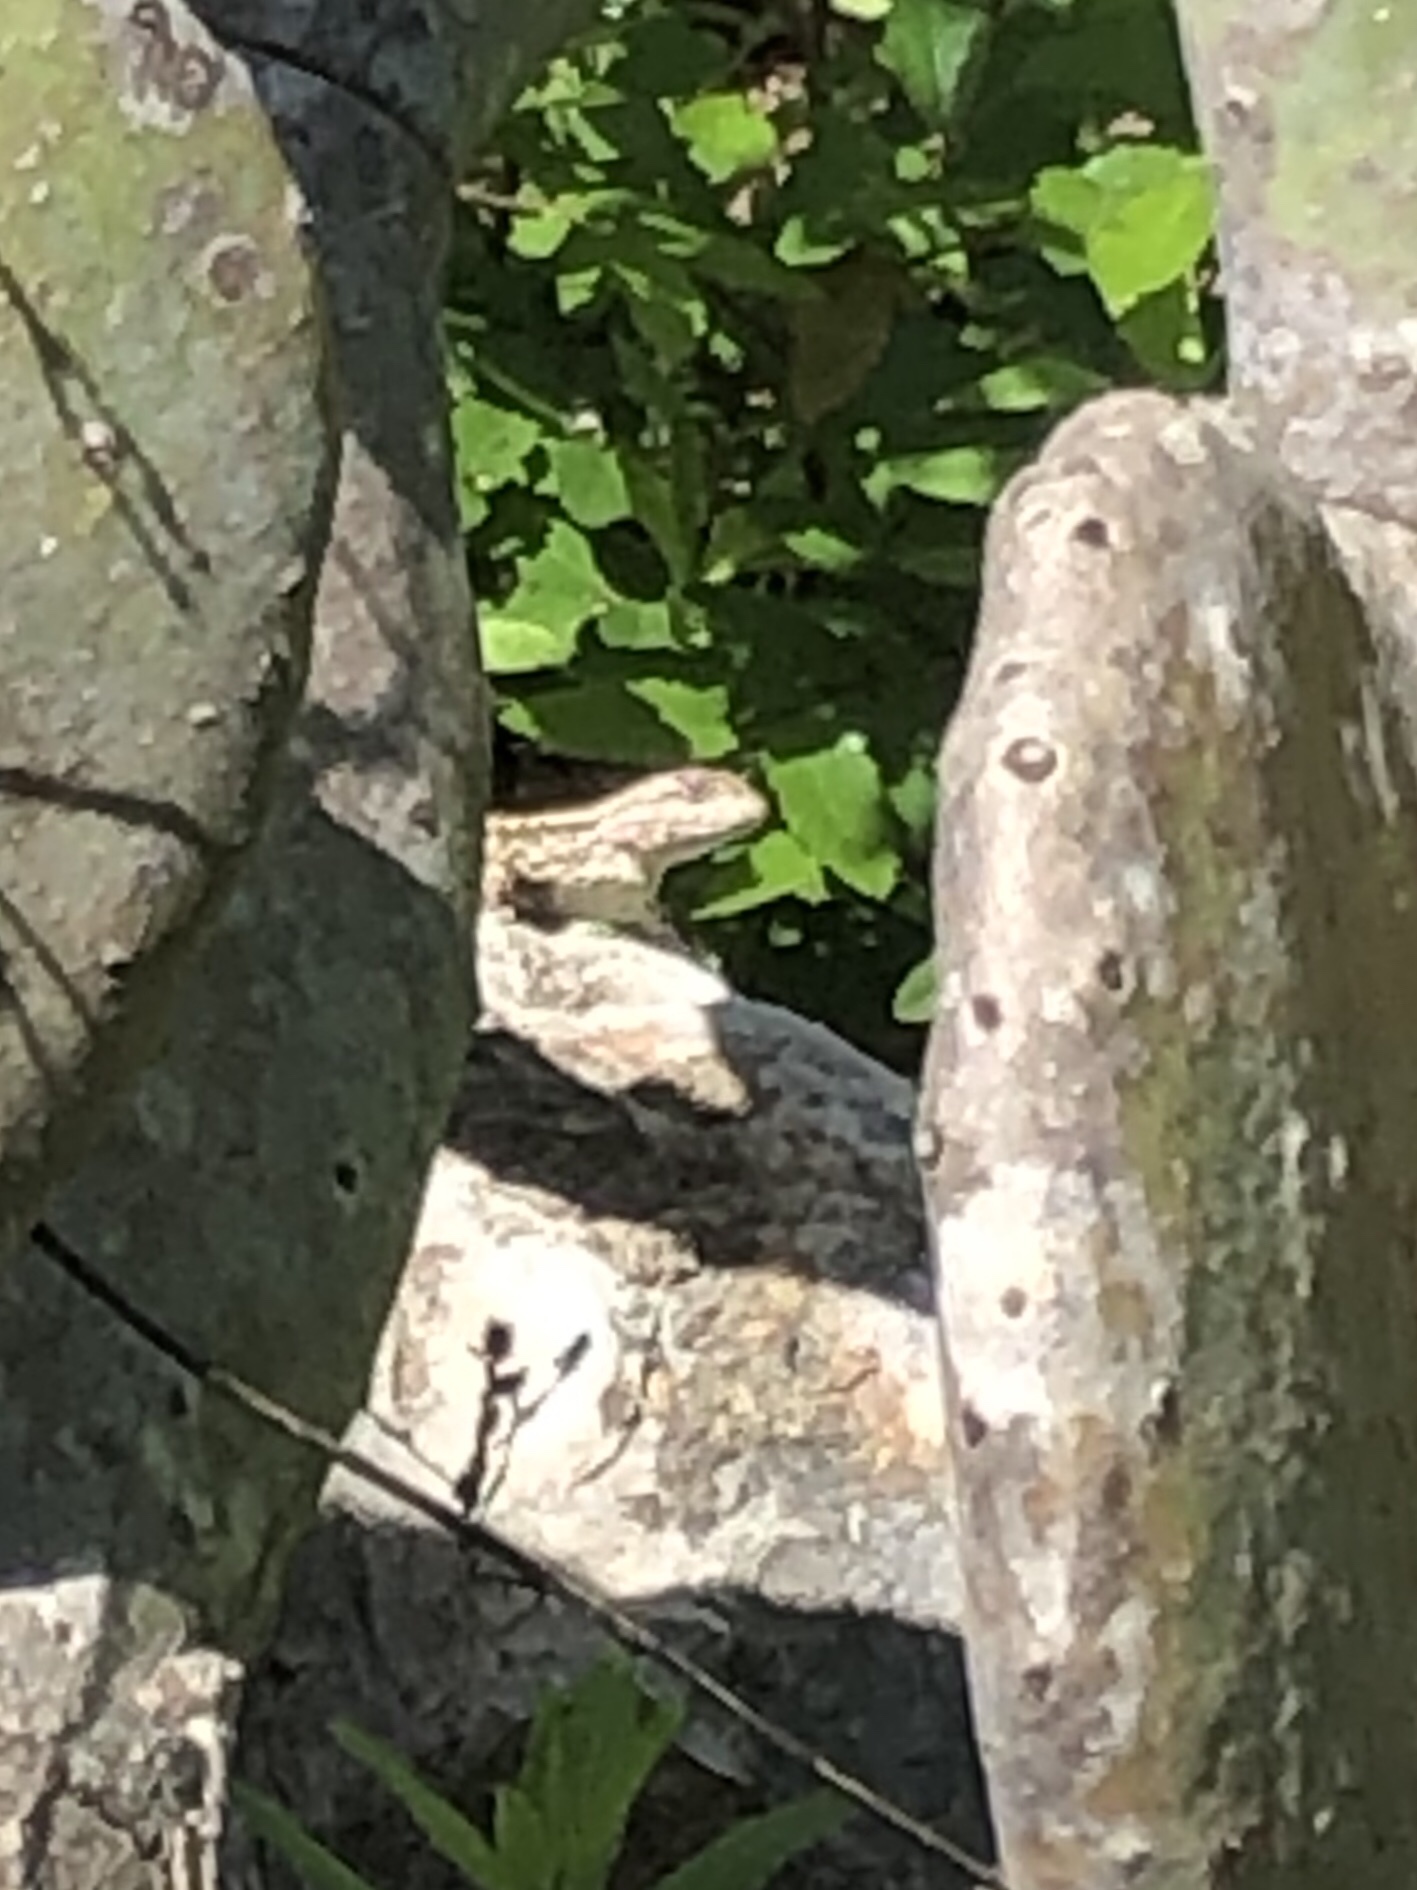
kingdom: Animalia
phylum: Chordata
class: Squamata
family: Phrynosomatidae
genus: Sceloporus
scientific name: Sceloporus olivaceus
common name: Texas spiny lizard
